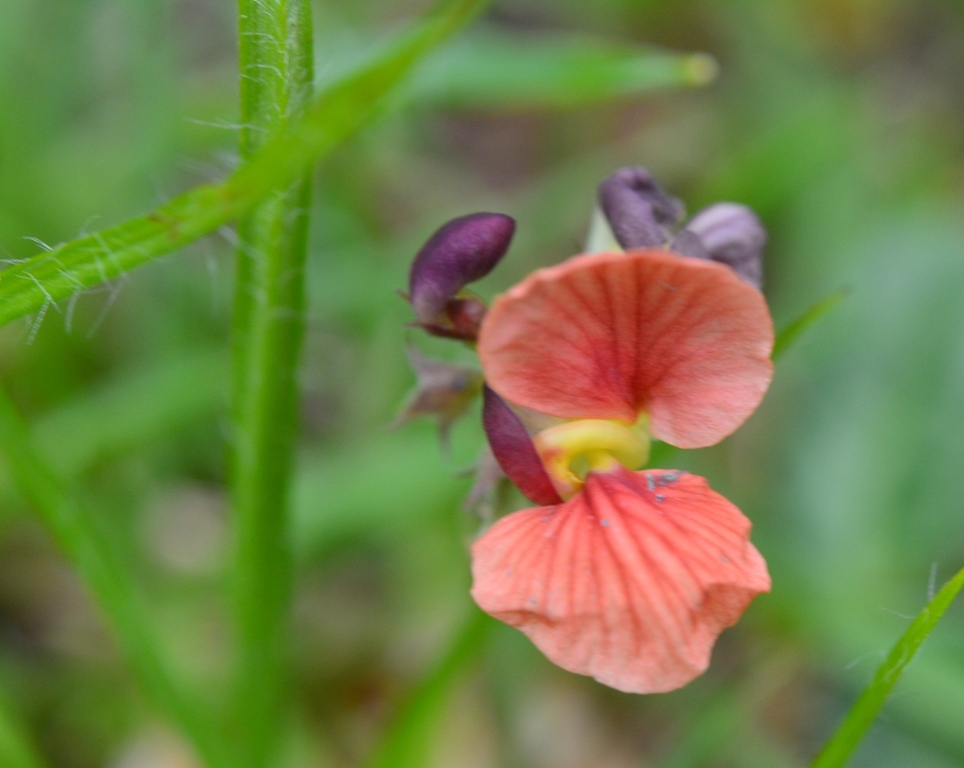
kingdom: Plantae
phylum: Tracheophyta
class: Magnoliopsida
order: Fabales
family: Fabaceae
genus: Macroptilium
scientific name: Macroptilium gibbosifolium
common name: Variableleaf bushbean
